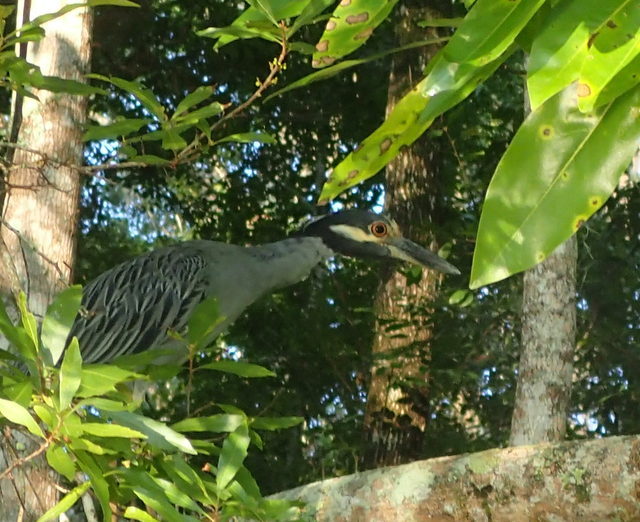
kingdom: Animalia
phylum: Chordata
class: Aves
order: Pelecaniformes
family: Ardeidae
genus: Nyctanassa
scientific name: Nyctanassa violacea
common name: Yellow-crowned night heron
